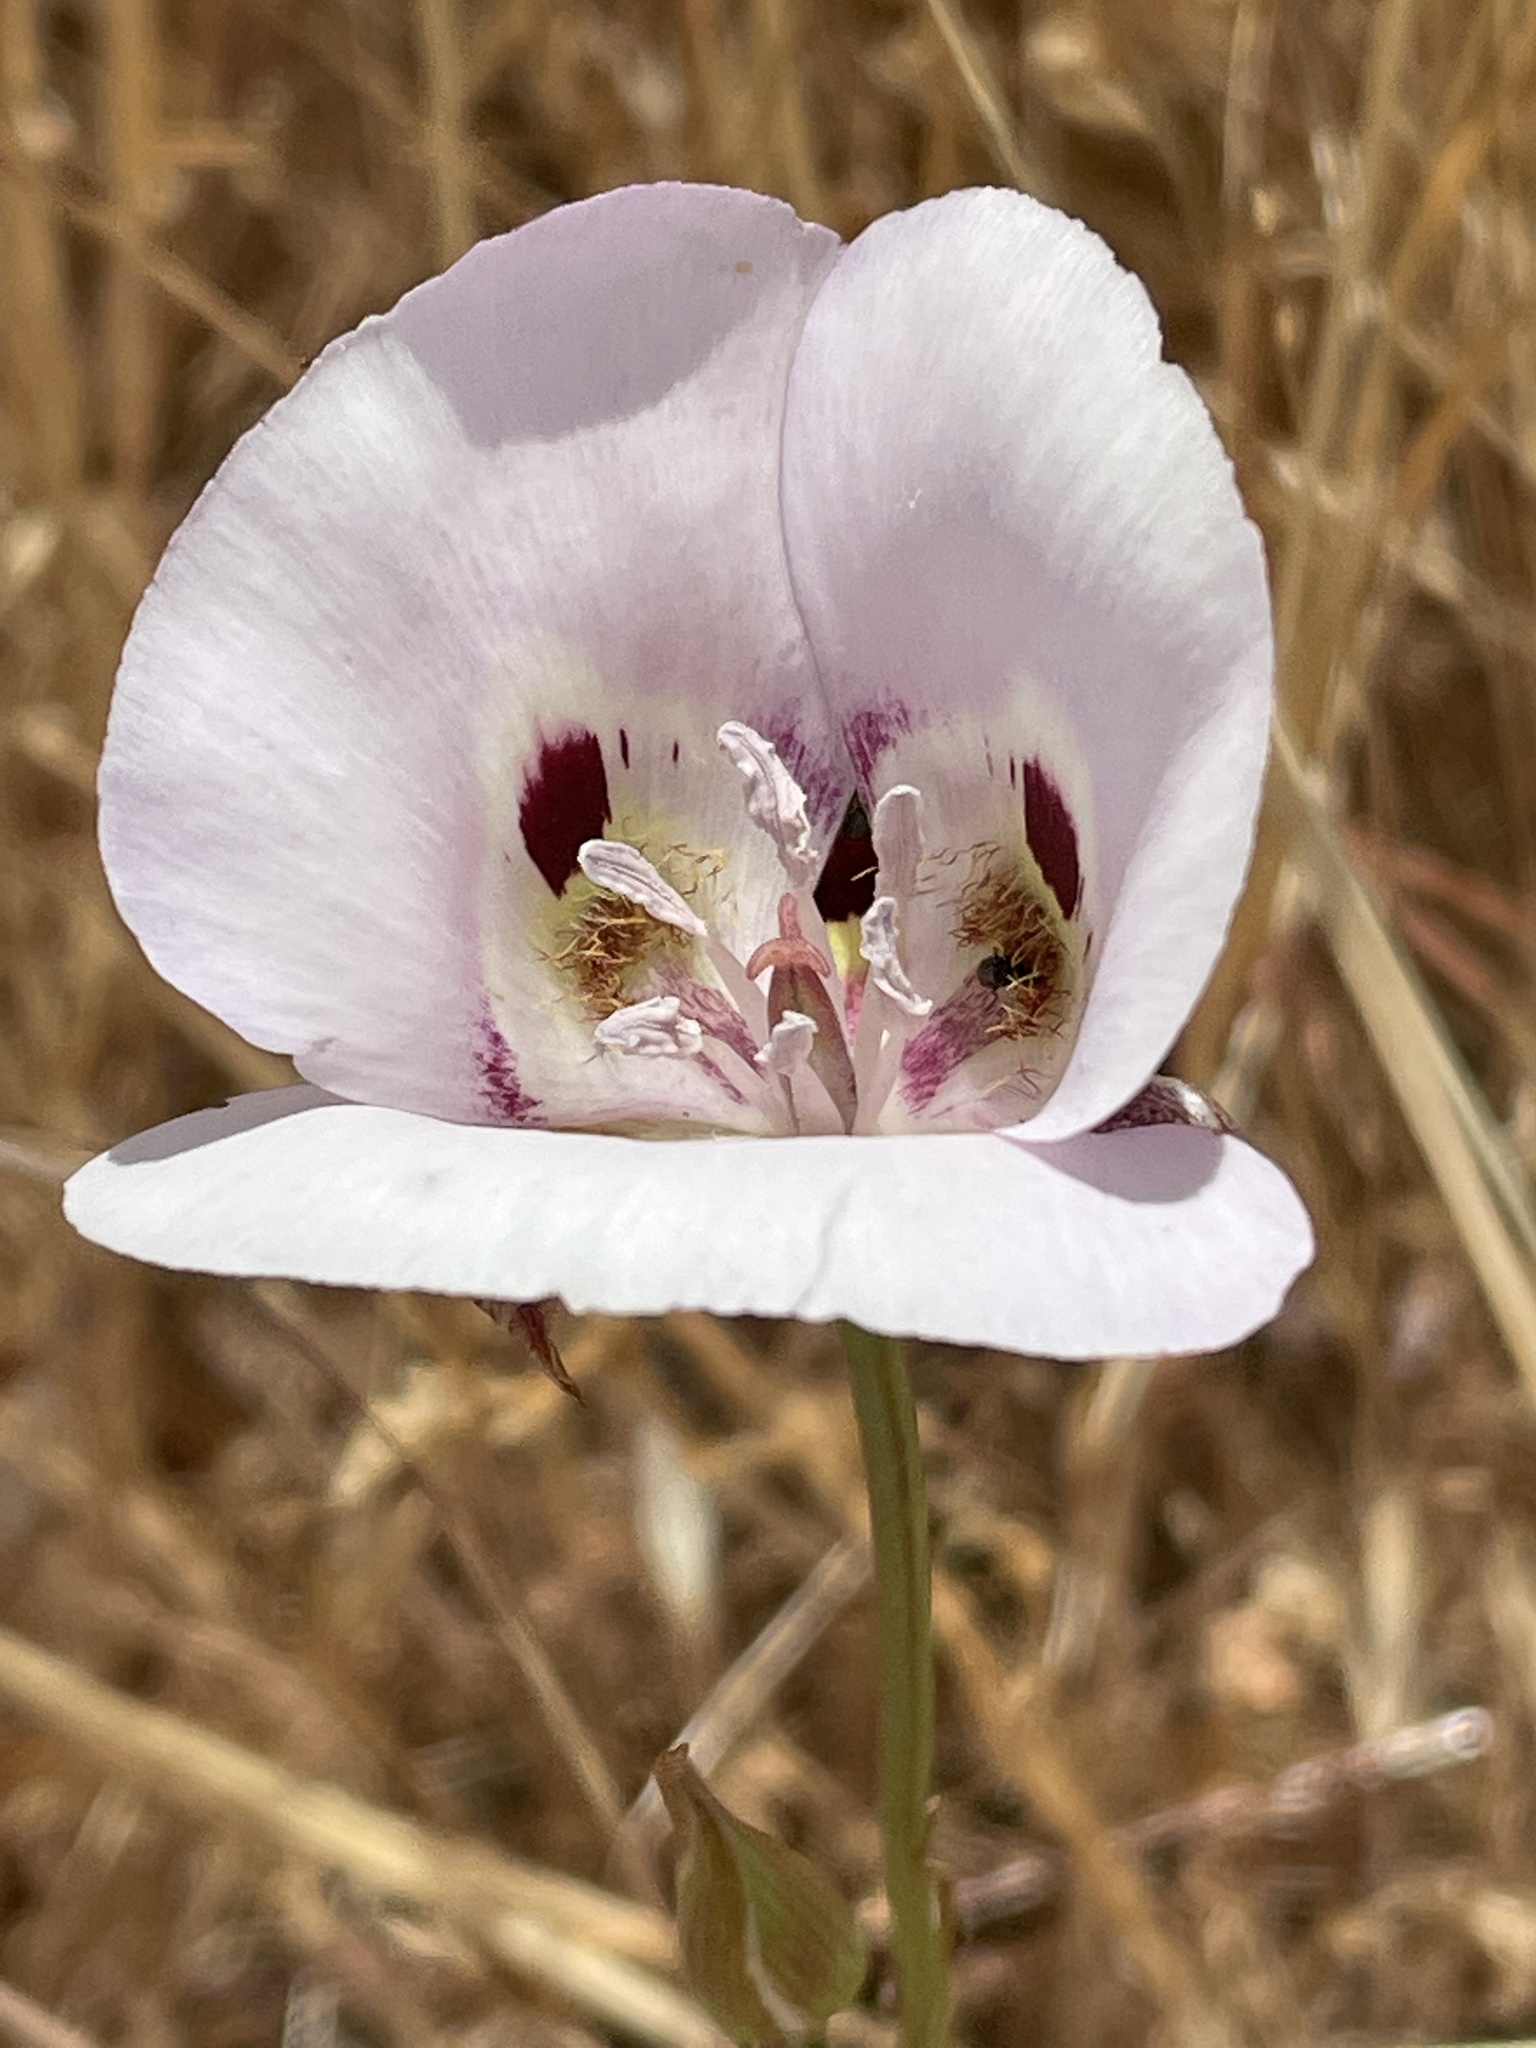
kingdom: Plantae
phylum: Tracheophyta
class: Liliopsida
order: Liliales
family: Liliaceae
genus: Calochortus
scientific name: Calochortus argillosus
